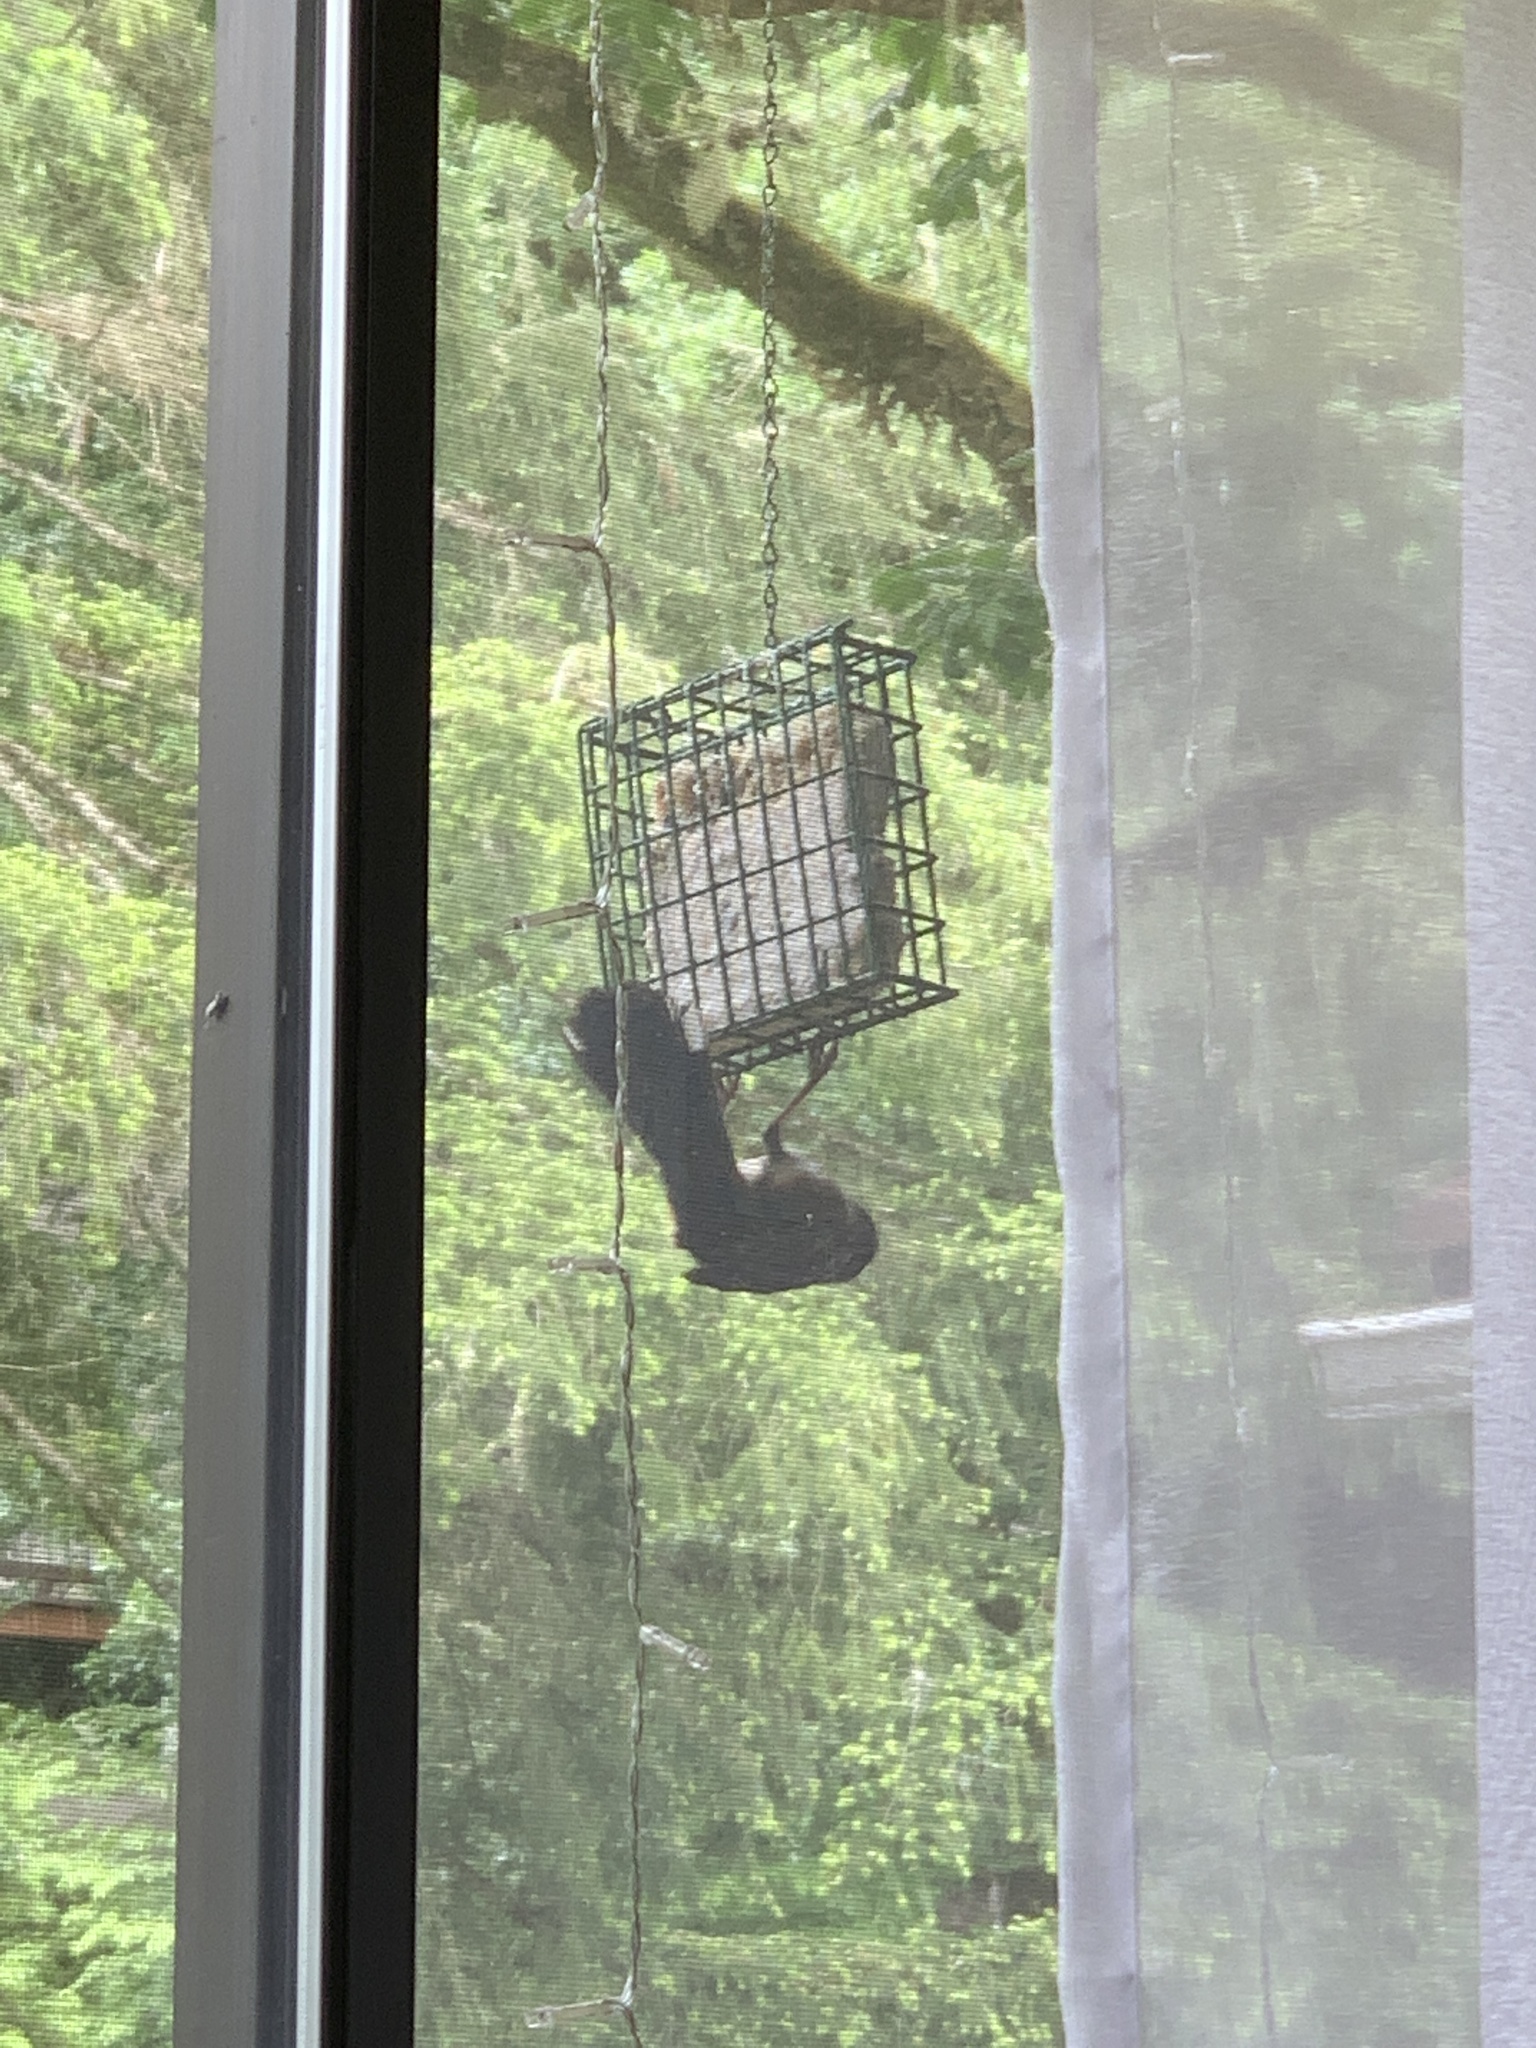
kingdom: Animalia
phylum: Chordata
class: Aves
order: Passeriformes
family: Passerellidae
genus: Pipilo
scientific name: Pipilo maculatus
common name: Spotted towhee
